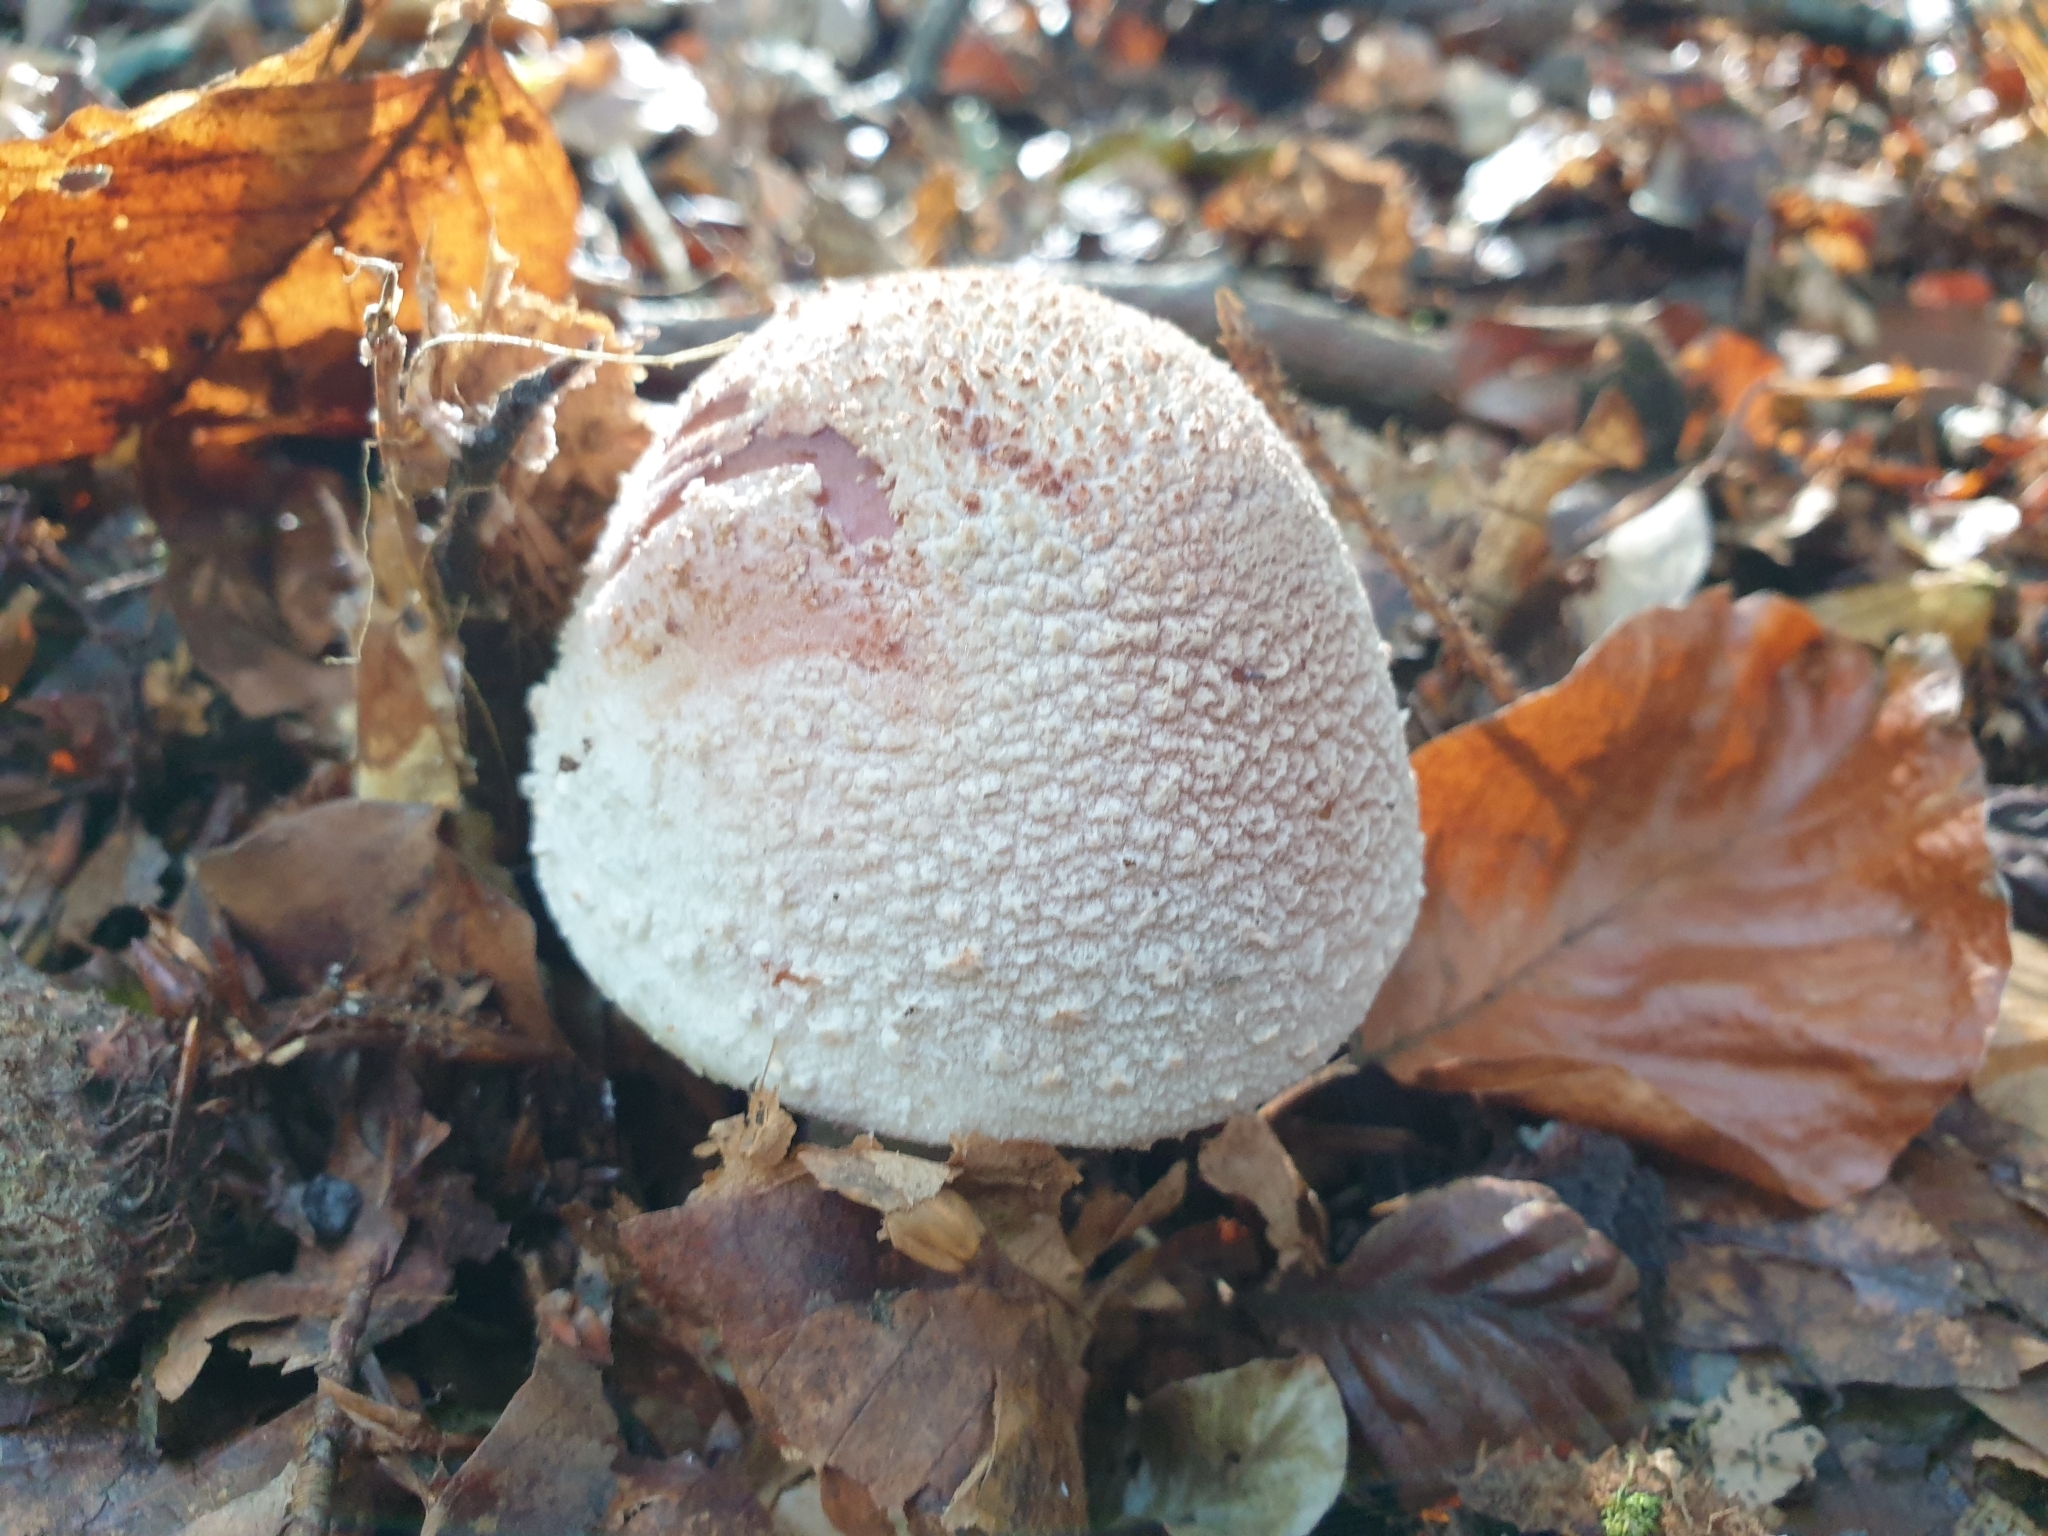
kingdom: Fungi
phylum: Basidiomycota
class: Agaricomycetes
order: Agaricales
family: Amanitaceae
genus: Amanita
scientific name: Amanita rubescens
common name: Blusher
